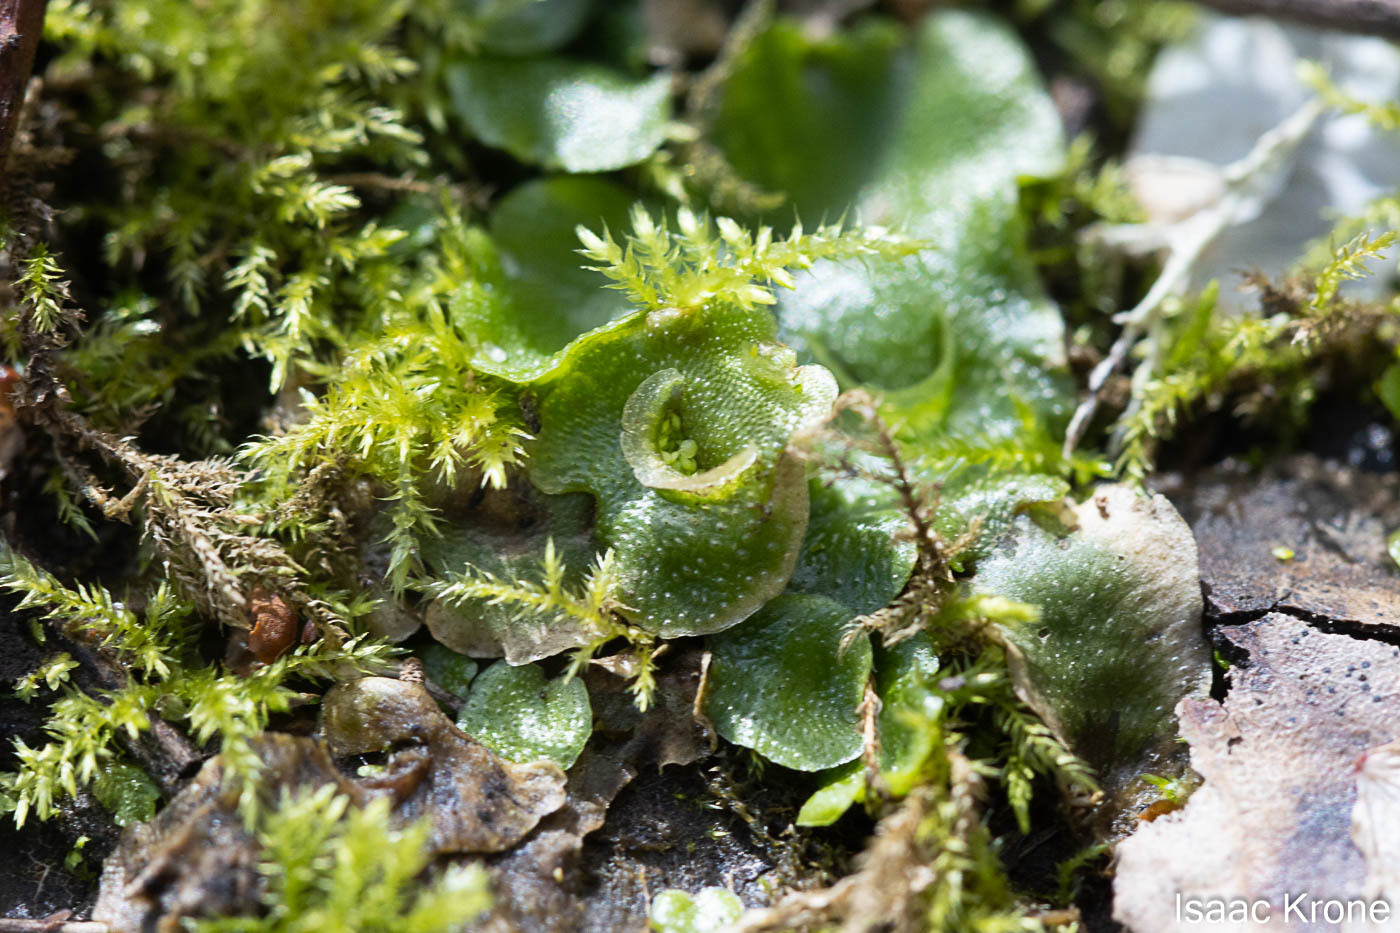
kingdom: Plantae
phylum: Marchantiophyta
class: Marchantiopsida
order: Lunulariales
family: Lunulariaceae
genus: Lunularia
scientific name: Lunularia cruciata
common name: Crescent-cup liverwort
